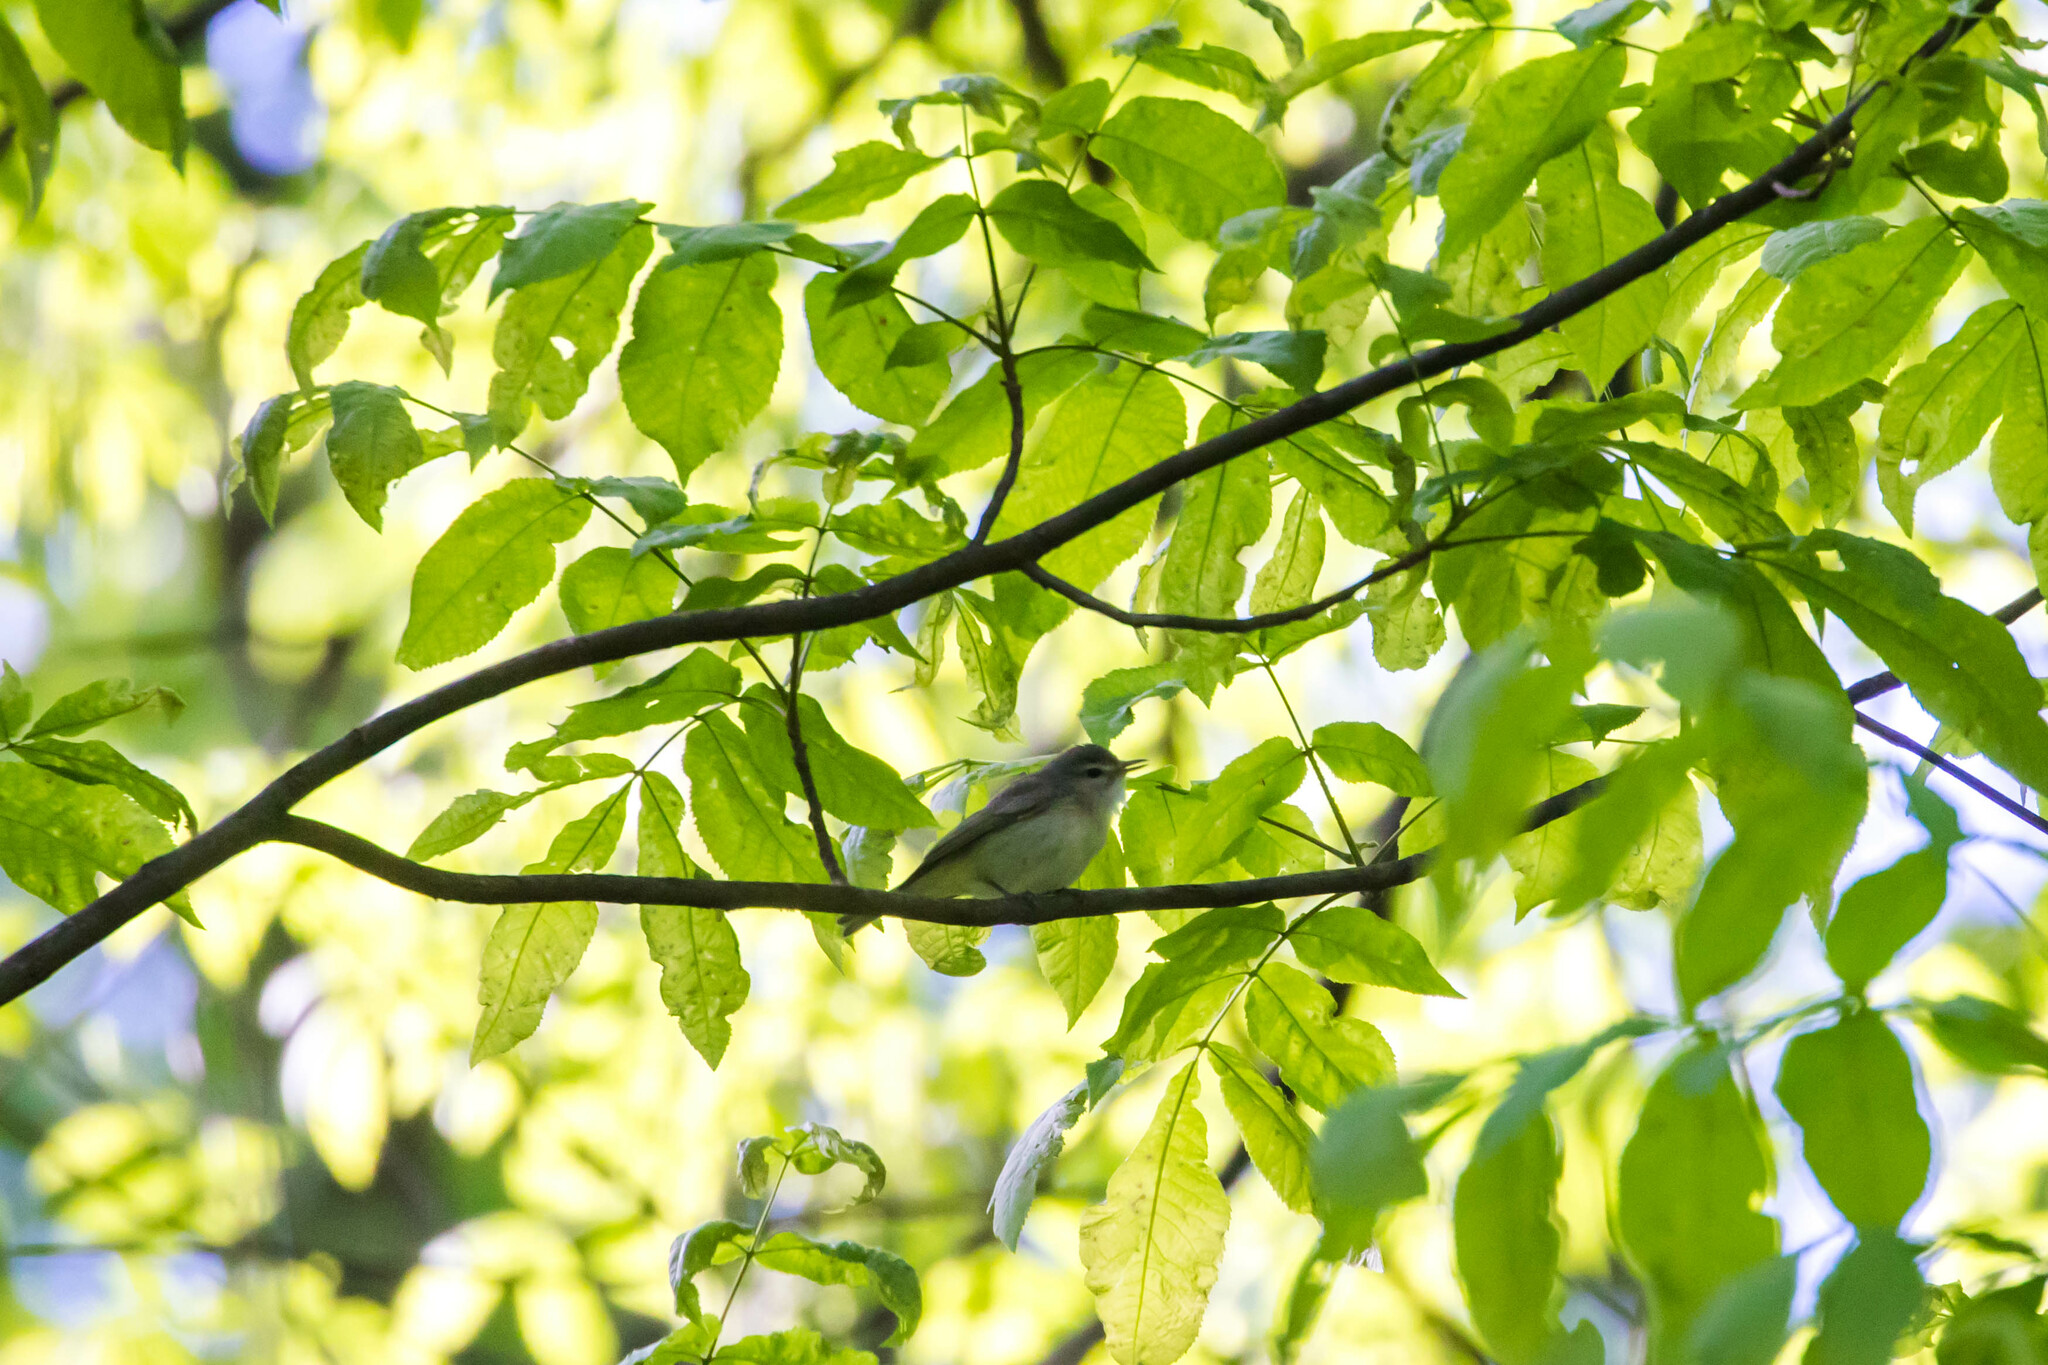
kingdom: Animalia
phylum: Chordata
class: Aves
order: Passeriformes
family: Vireonidae
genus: Vireo
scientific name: Vireo gilvus
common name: Warbling vireo
